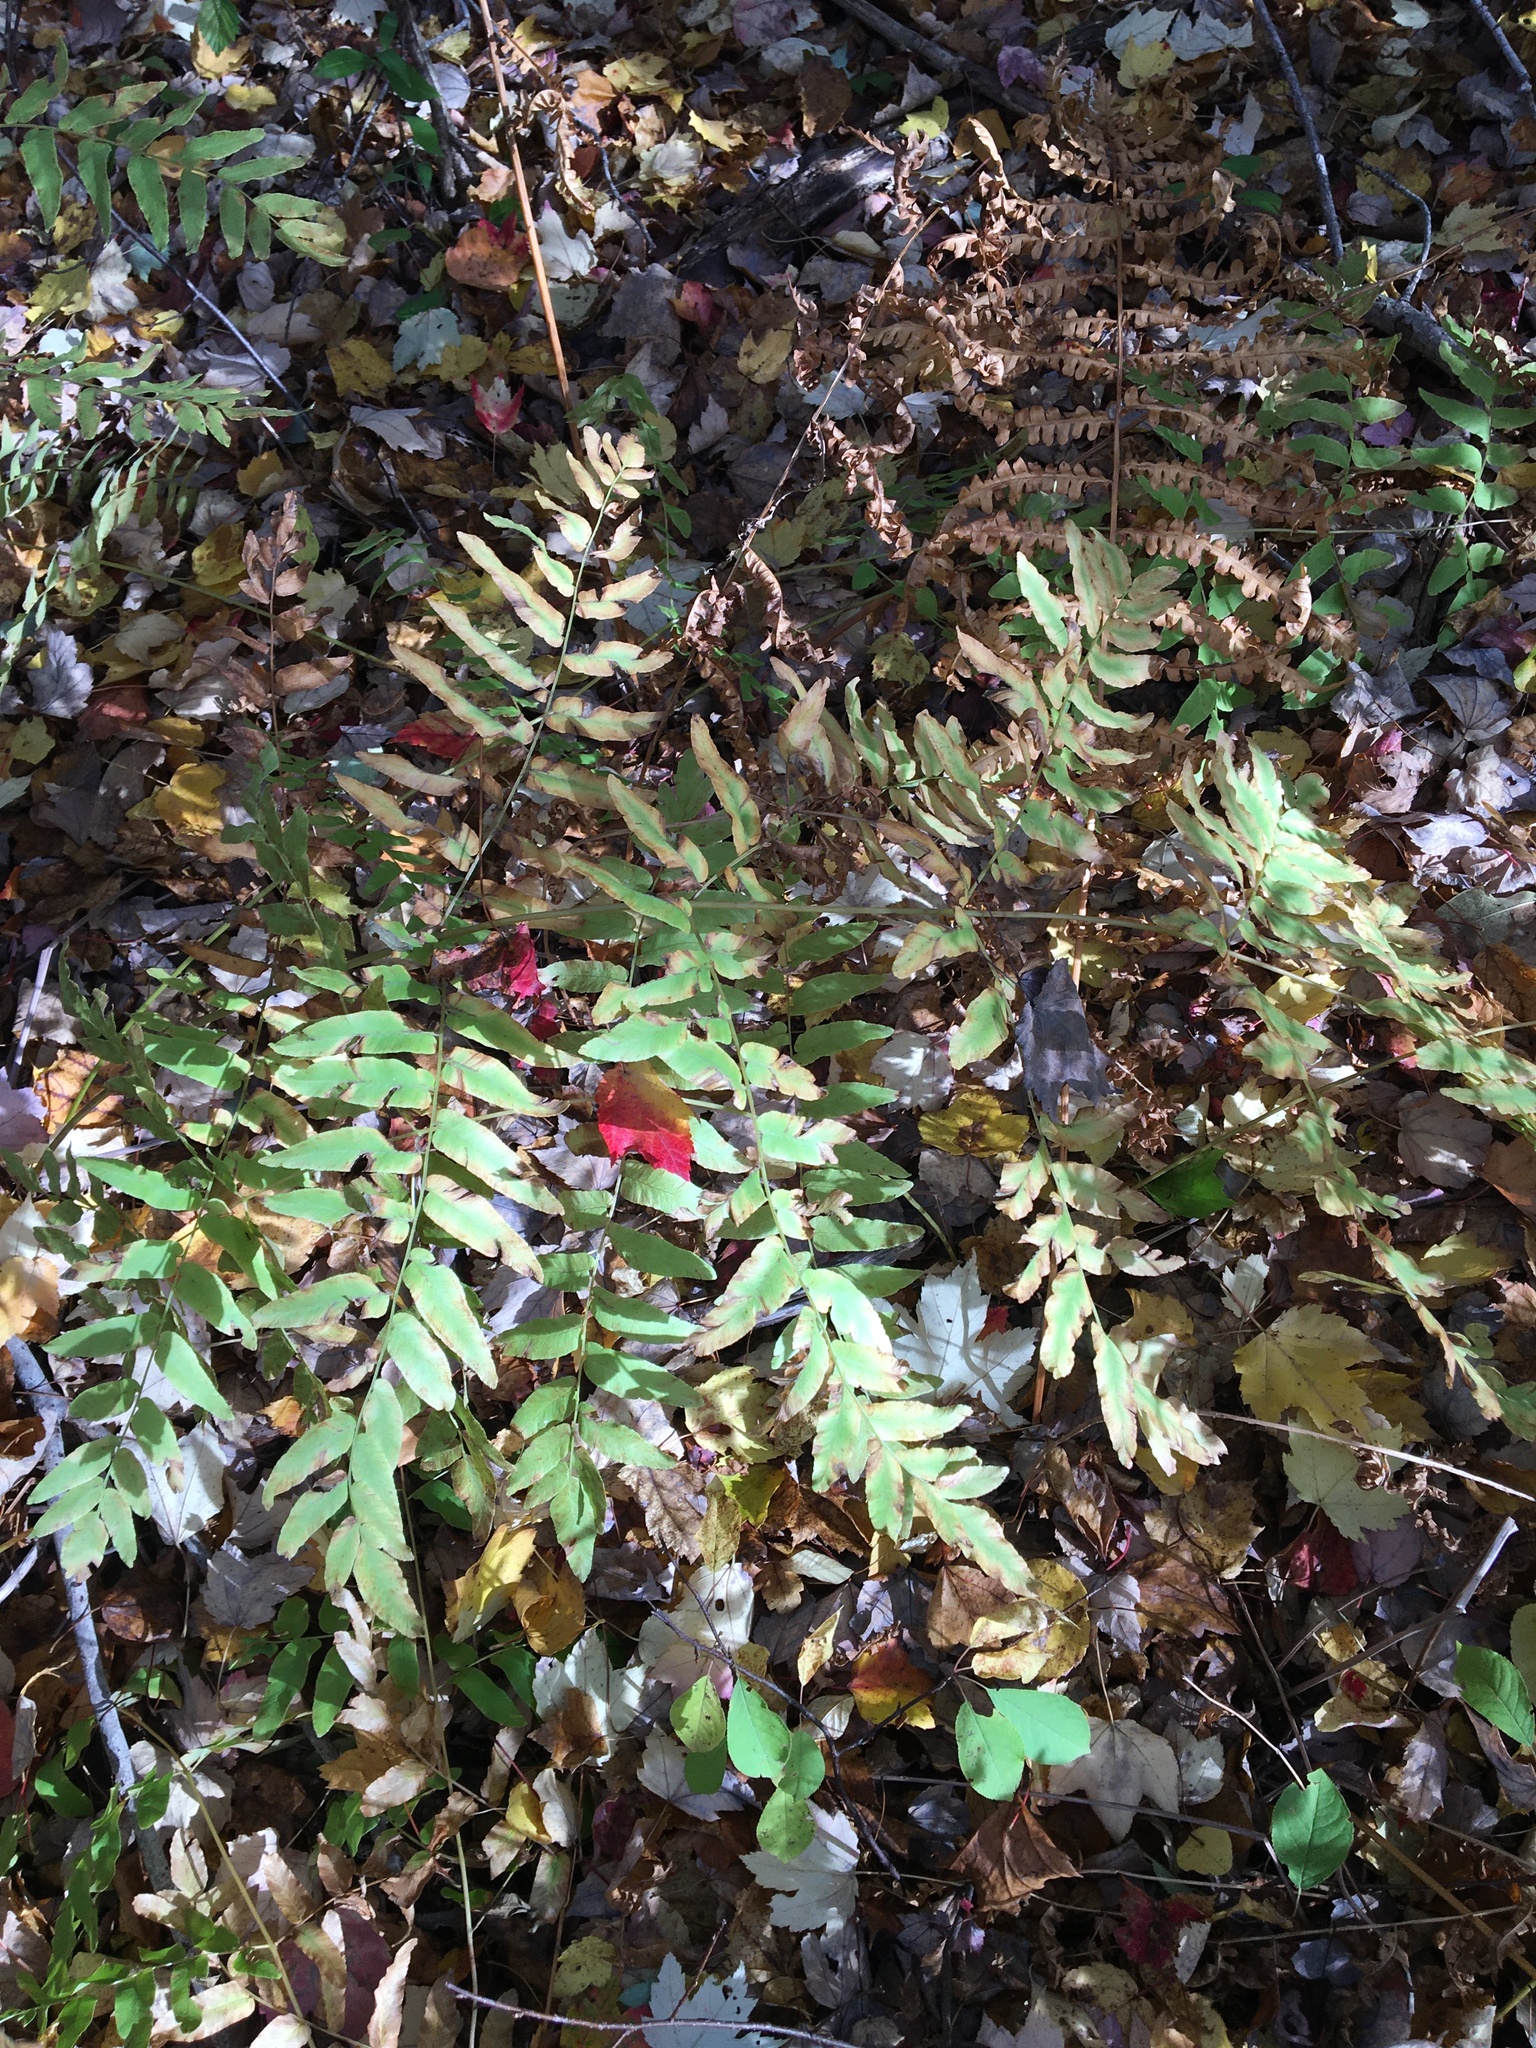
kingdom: Plantae
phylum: Tracheophyta
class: Polypodiopsida
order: Osmundales
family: Osmundaceae
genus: Osmunda
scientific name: Osmunda spectabilis
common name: American royal fern
